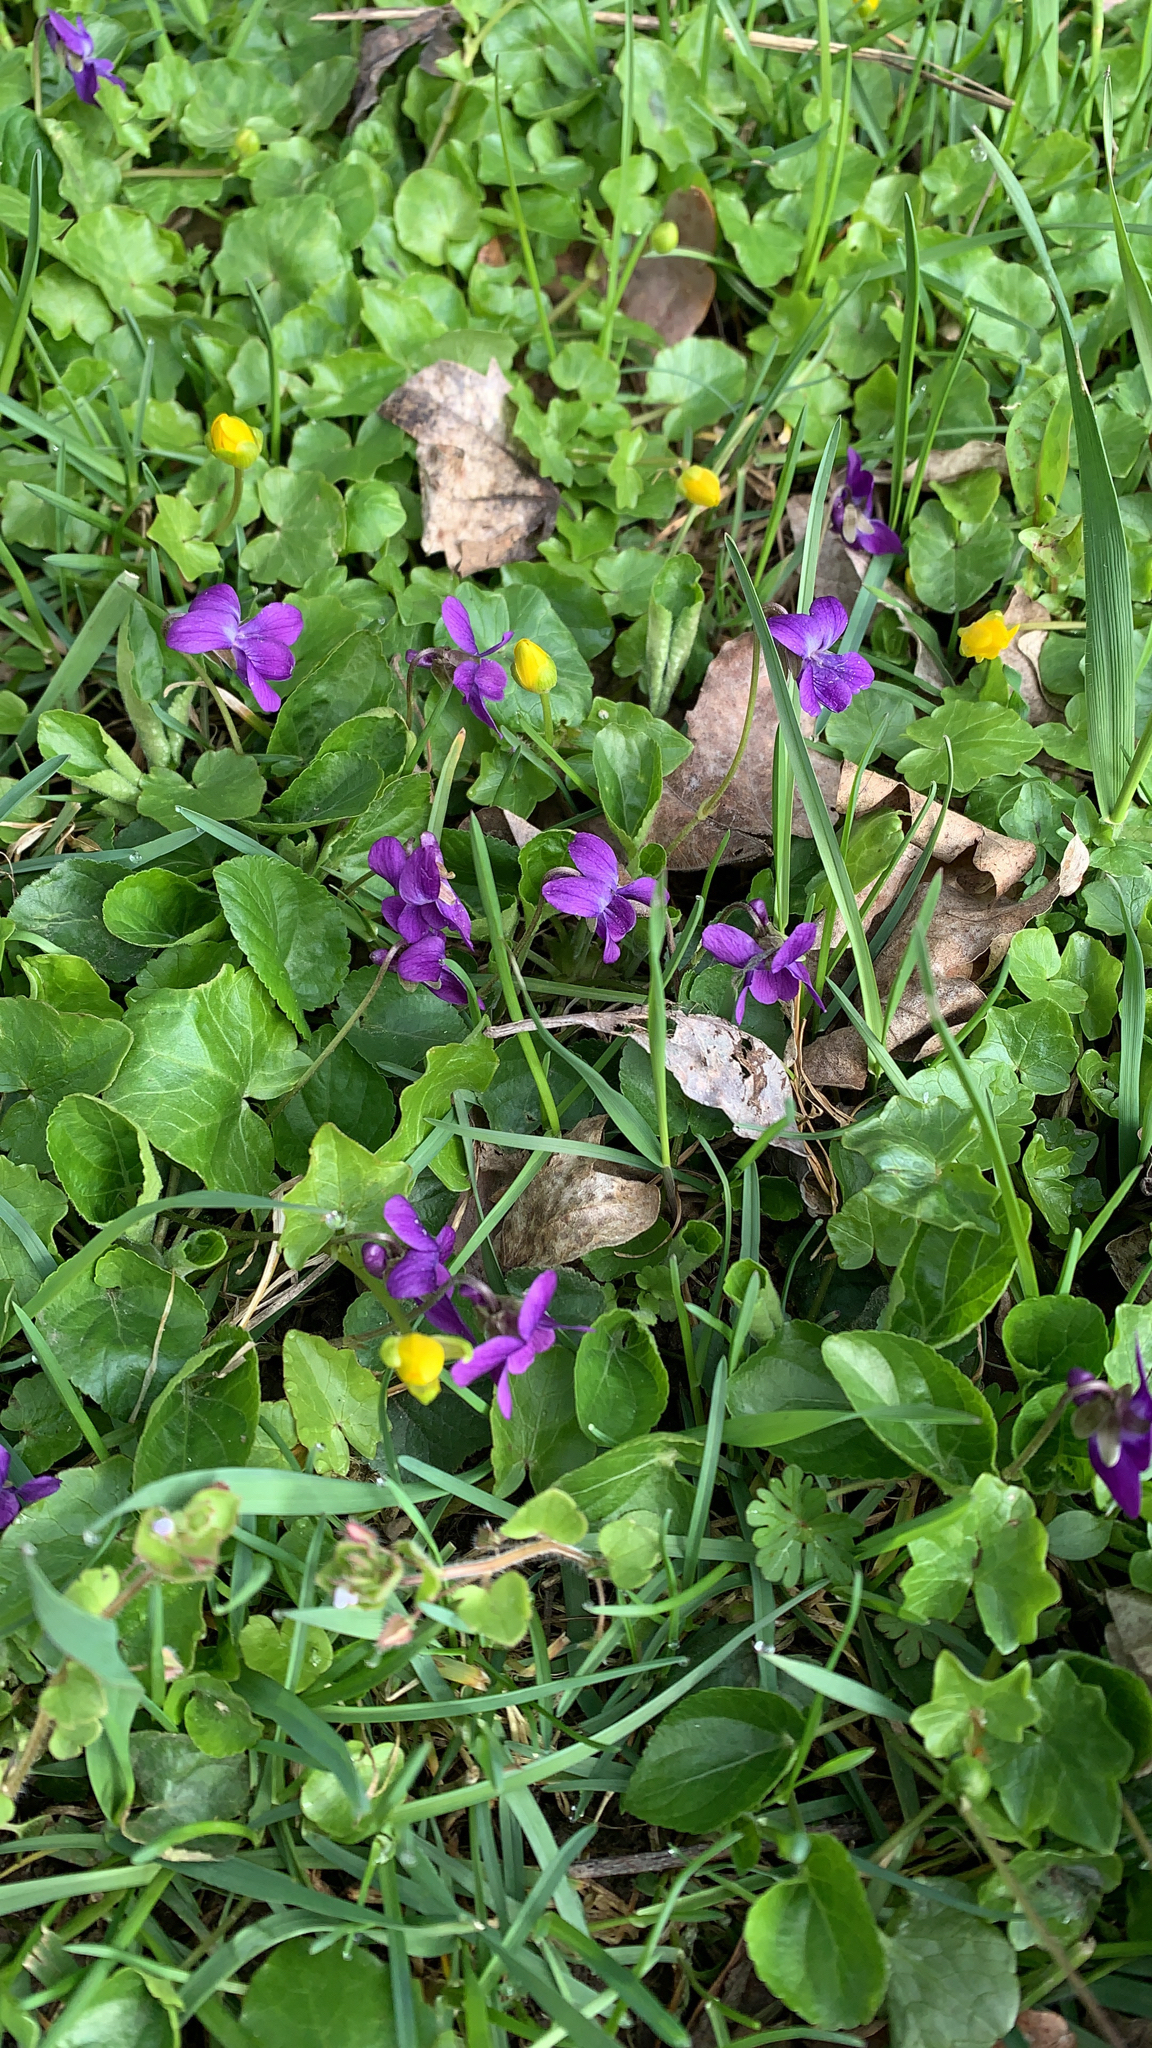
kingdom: Plantae
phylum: Tracheophyta
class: Magnoliopsida
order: Malpighiales
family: Violaceae
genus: Viola
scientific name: Viola odorata
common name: Sweet violet
